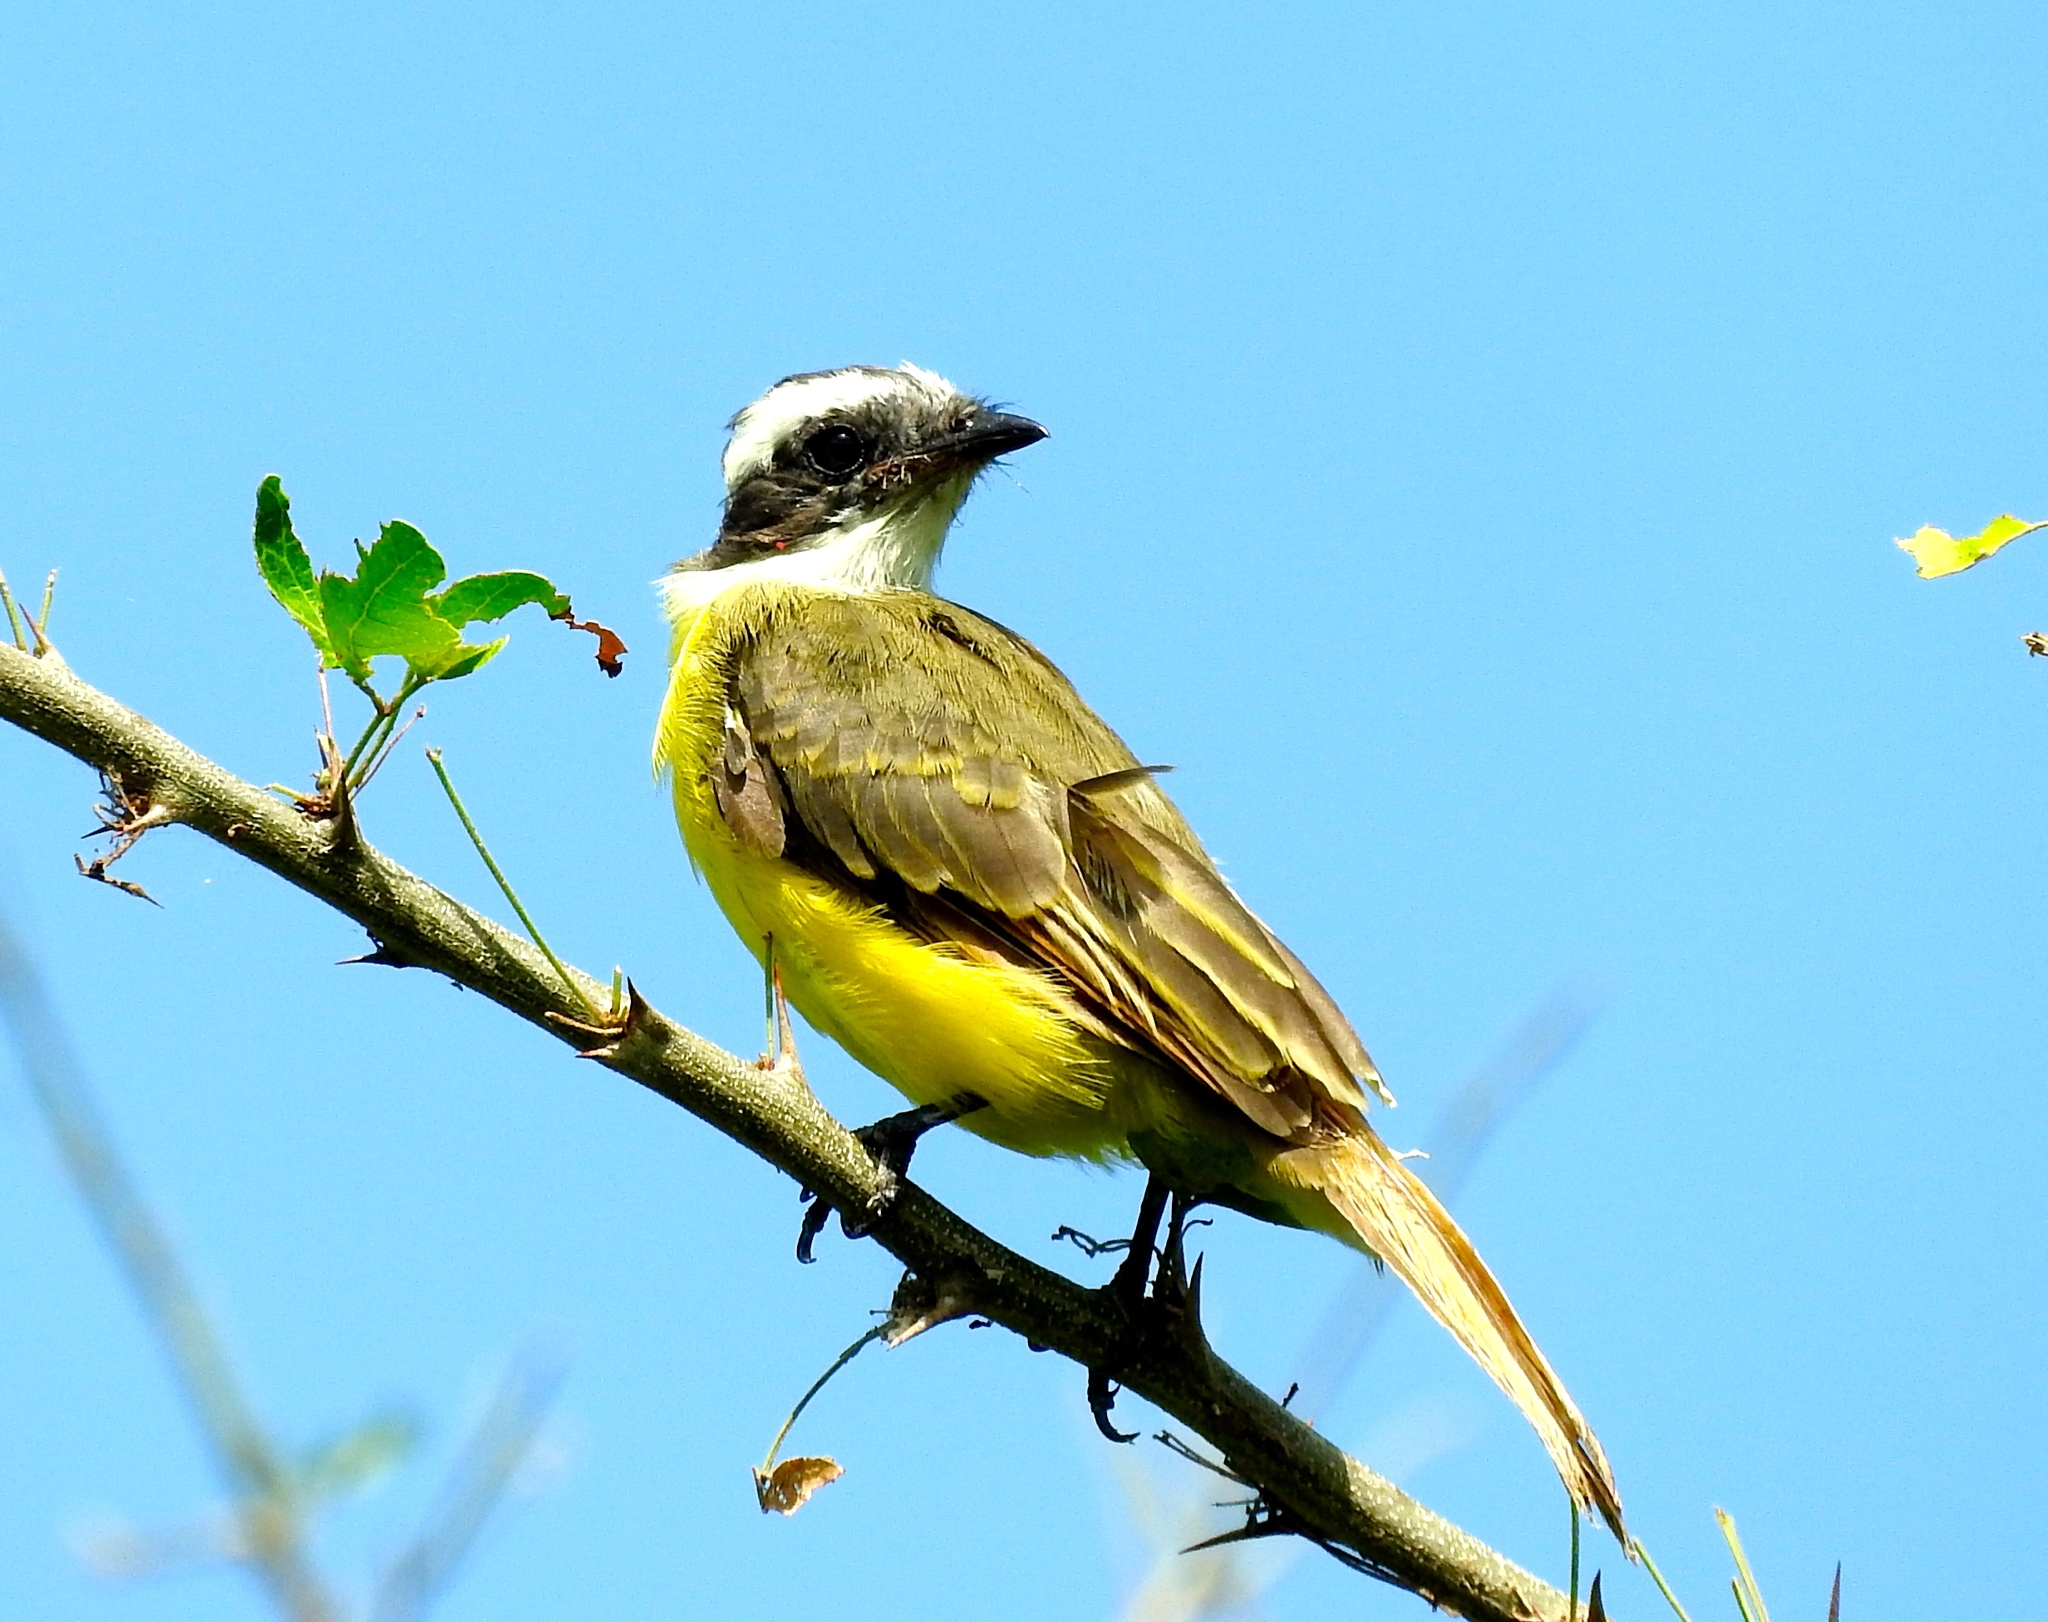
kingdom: Animalia
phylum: Chordata
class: Aves
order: Passeriformes
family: Tyrannidae
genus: Myiozetetes
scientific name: Myiozetetes similis
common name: Social flycatcher
